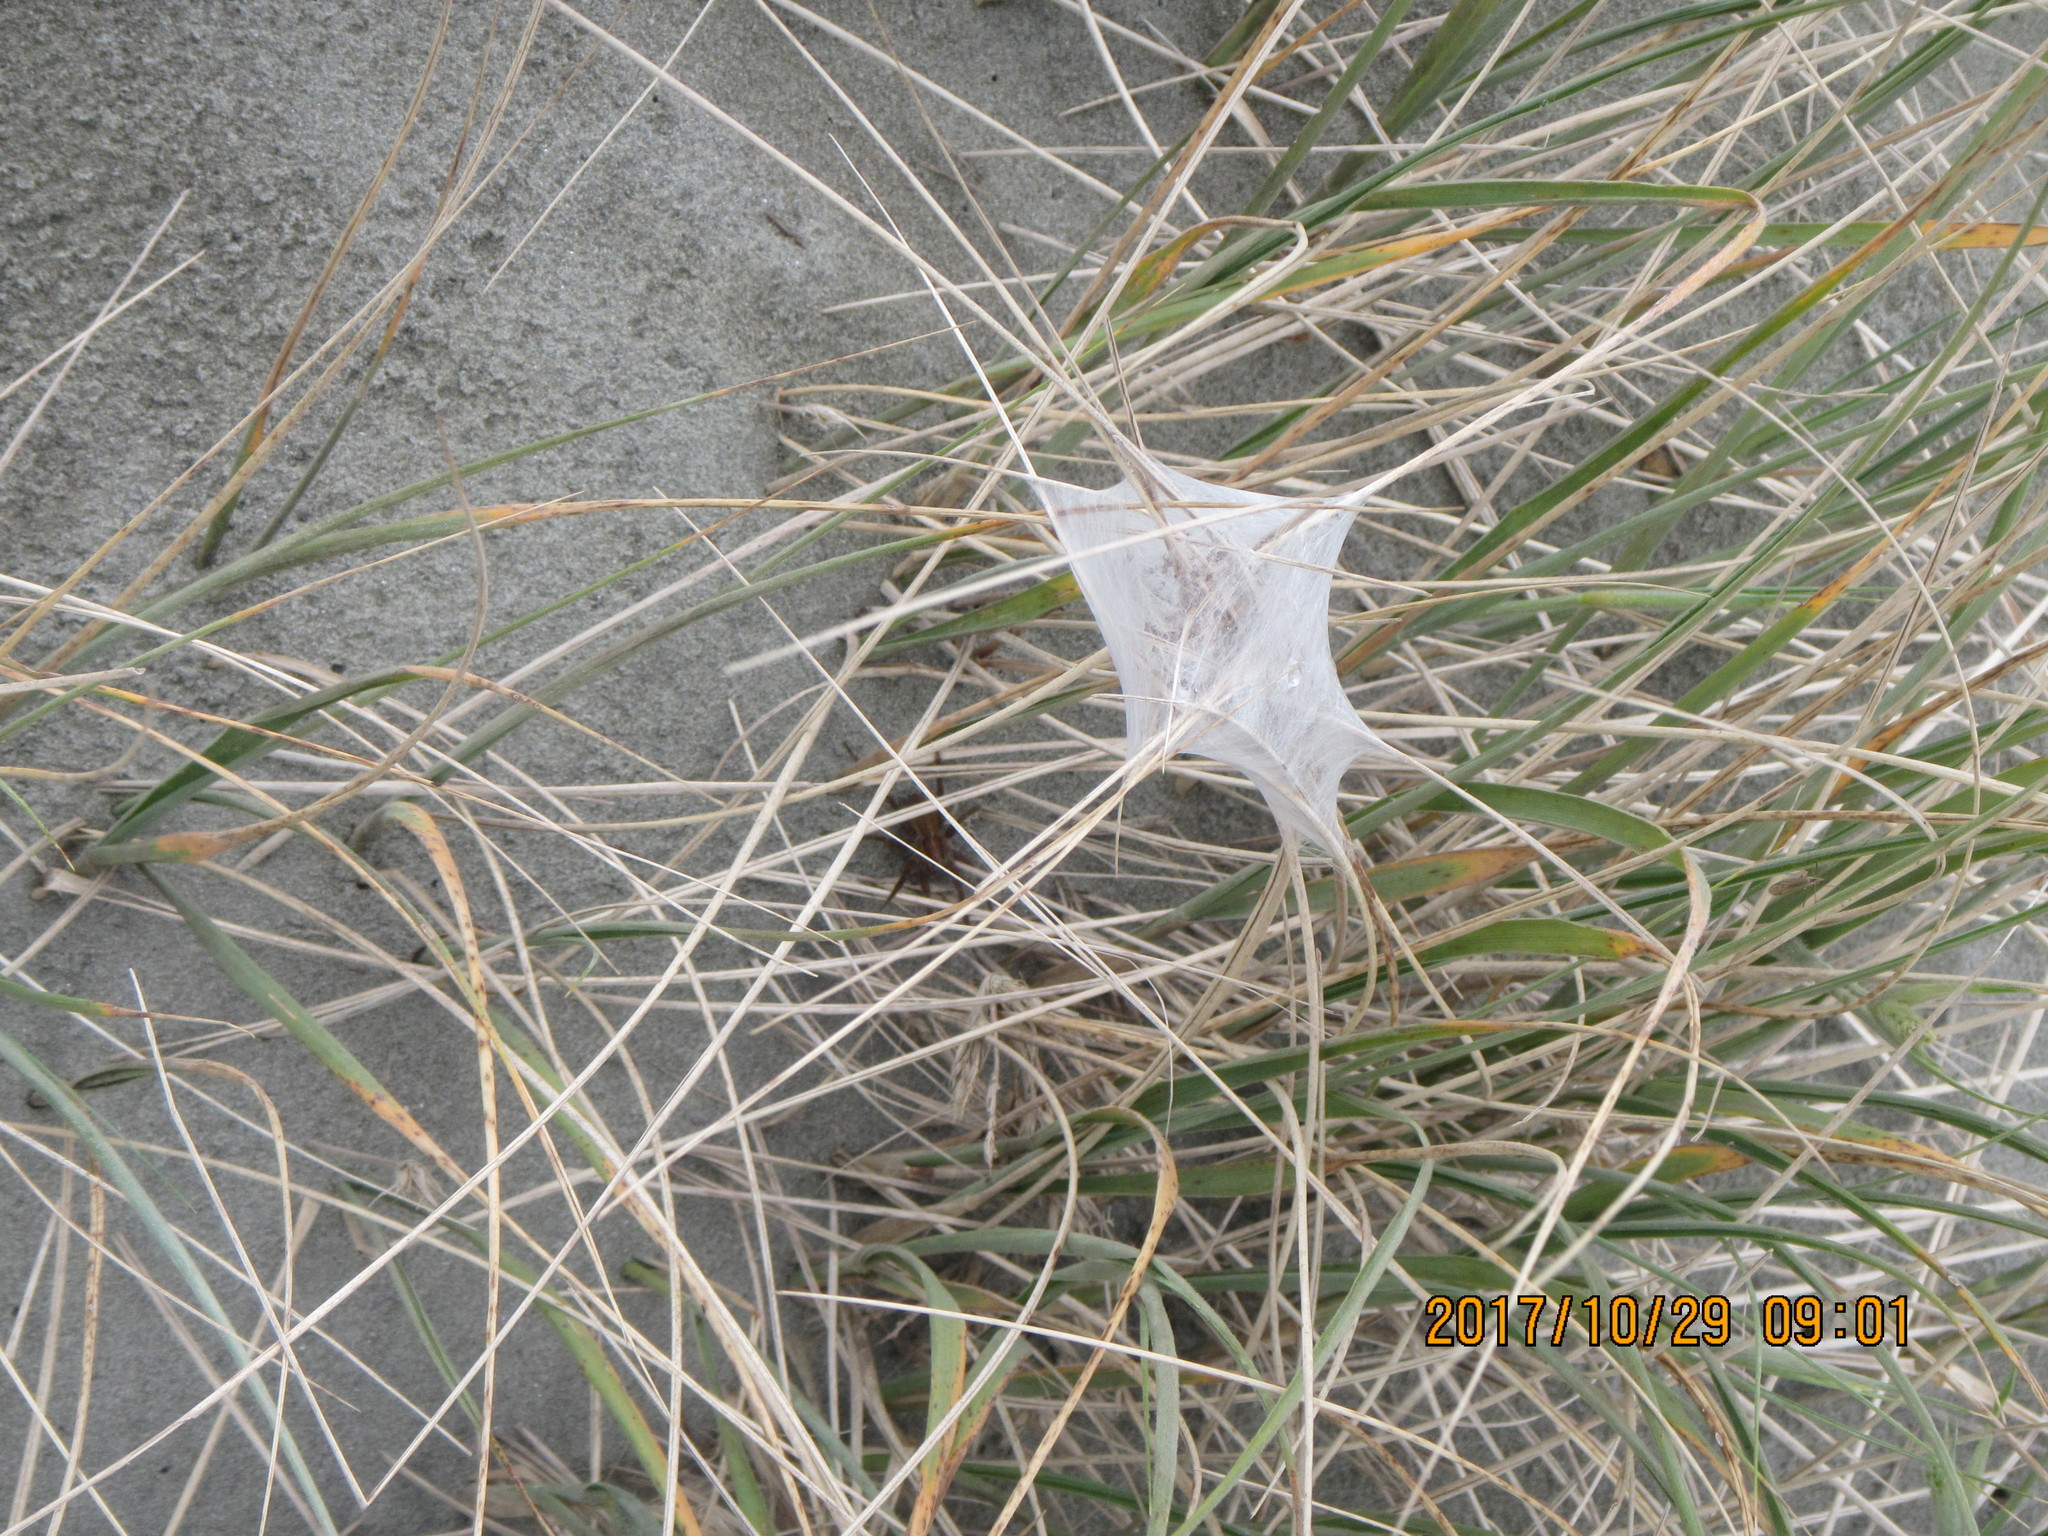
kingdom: Animalia
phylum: Arthropoda
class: Arachnida
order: Araneae
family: Pisauridae
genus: Dolomedes
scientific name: Dolomedes minor
